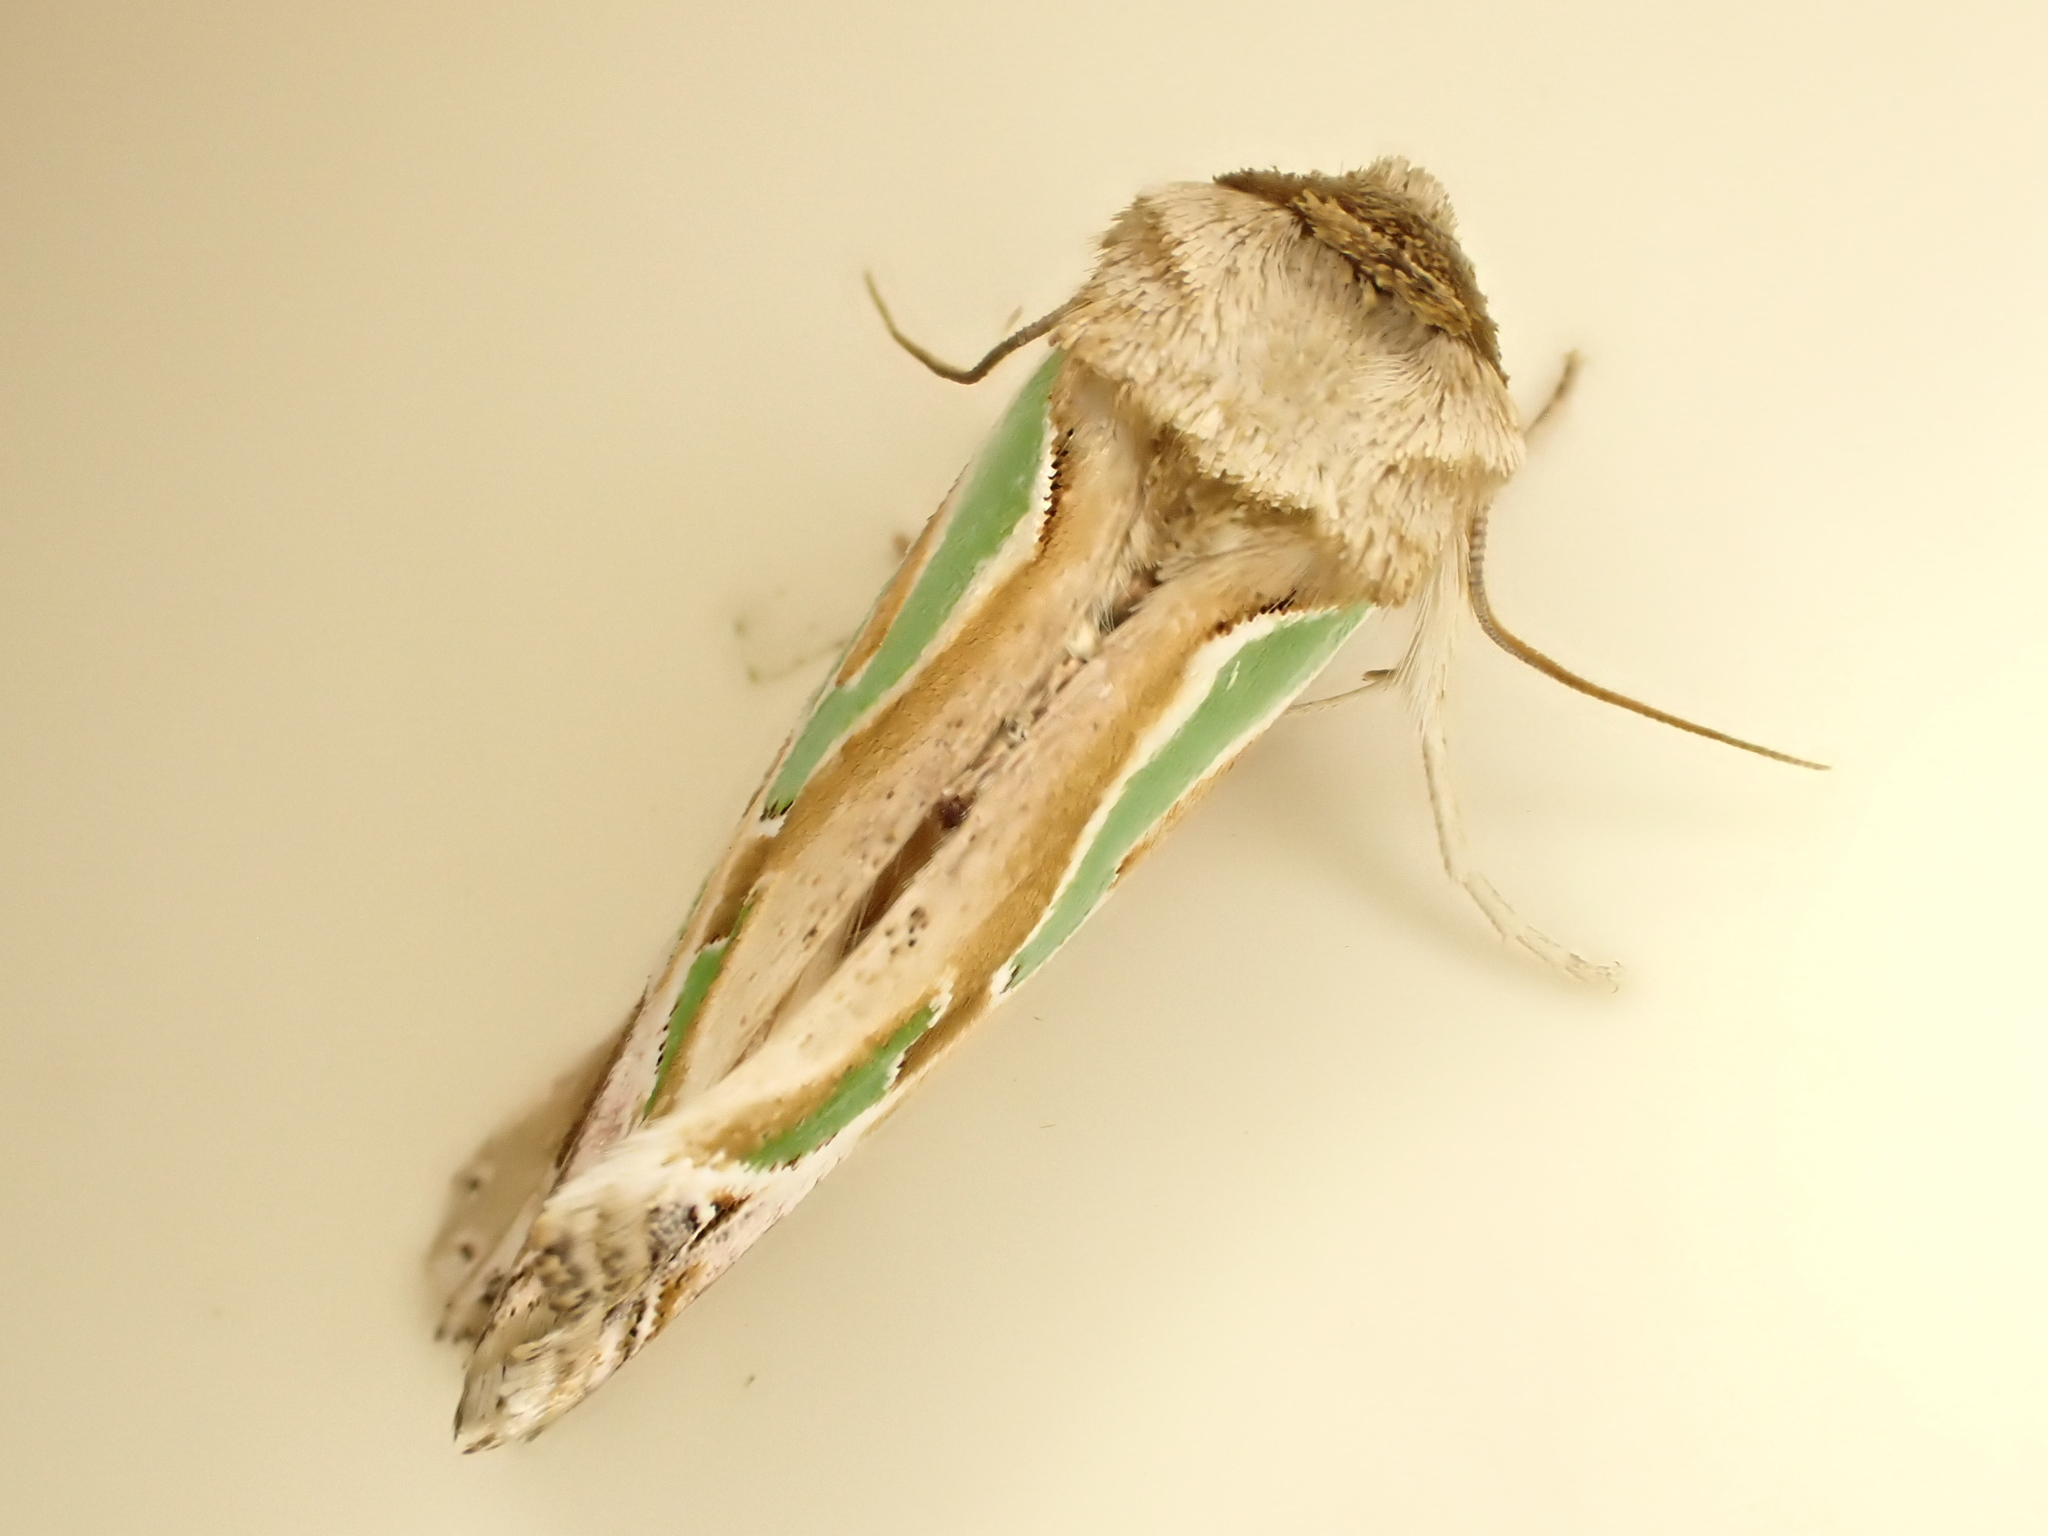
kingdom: Animalia
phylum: Arthropoda
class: Insecta
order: Lepidoptera
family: Noctuidae
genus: Cosmodes
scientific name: Cosmodes elegans
